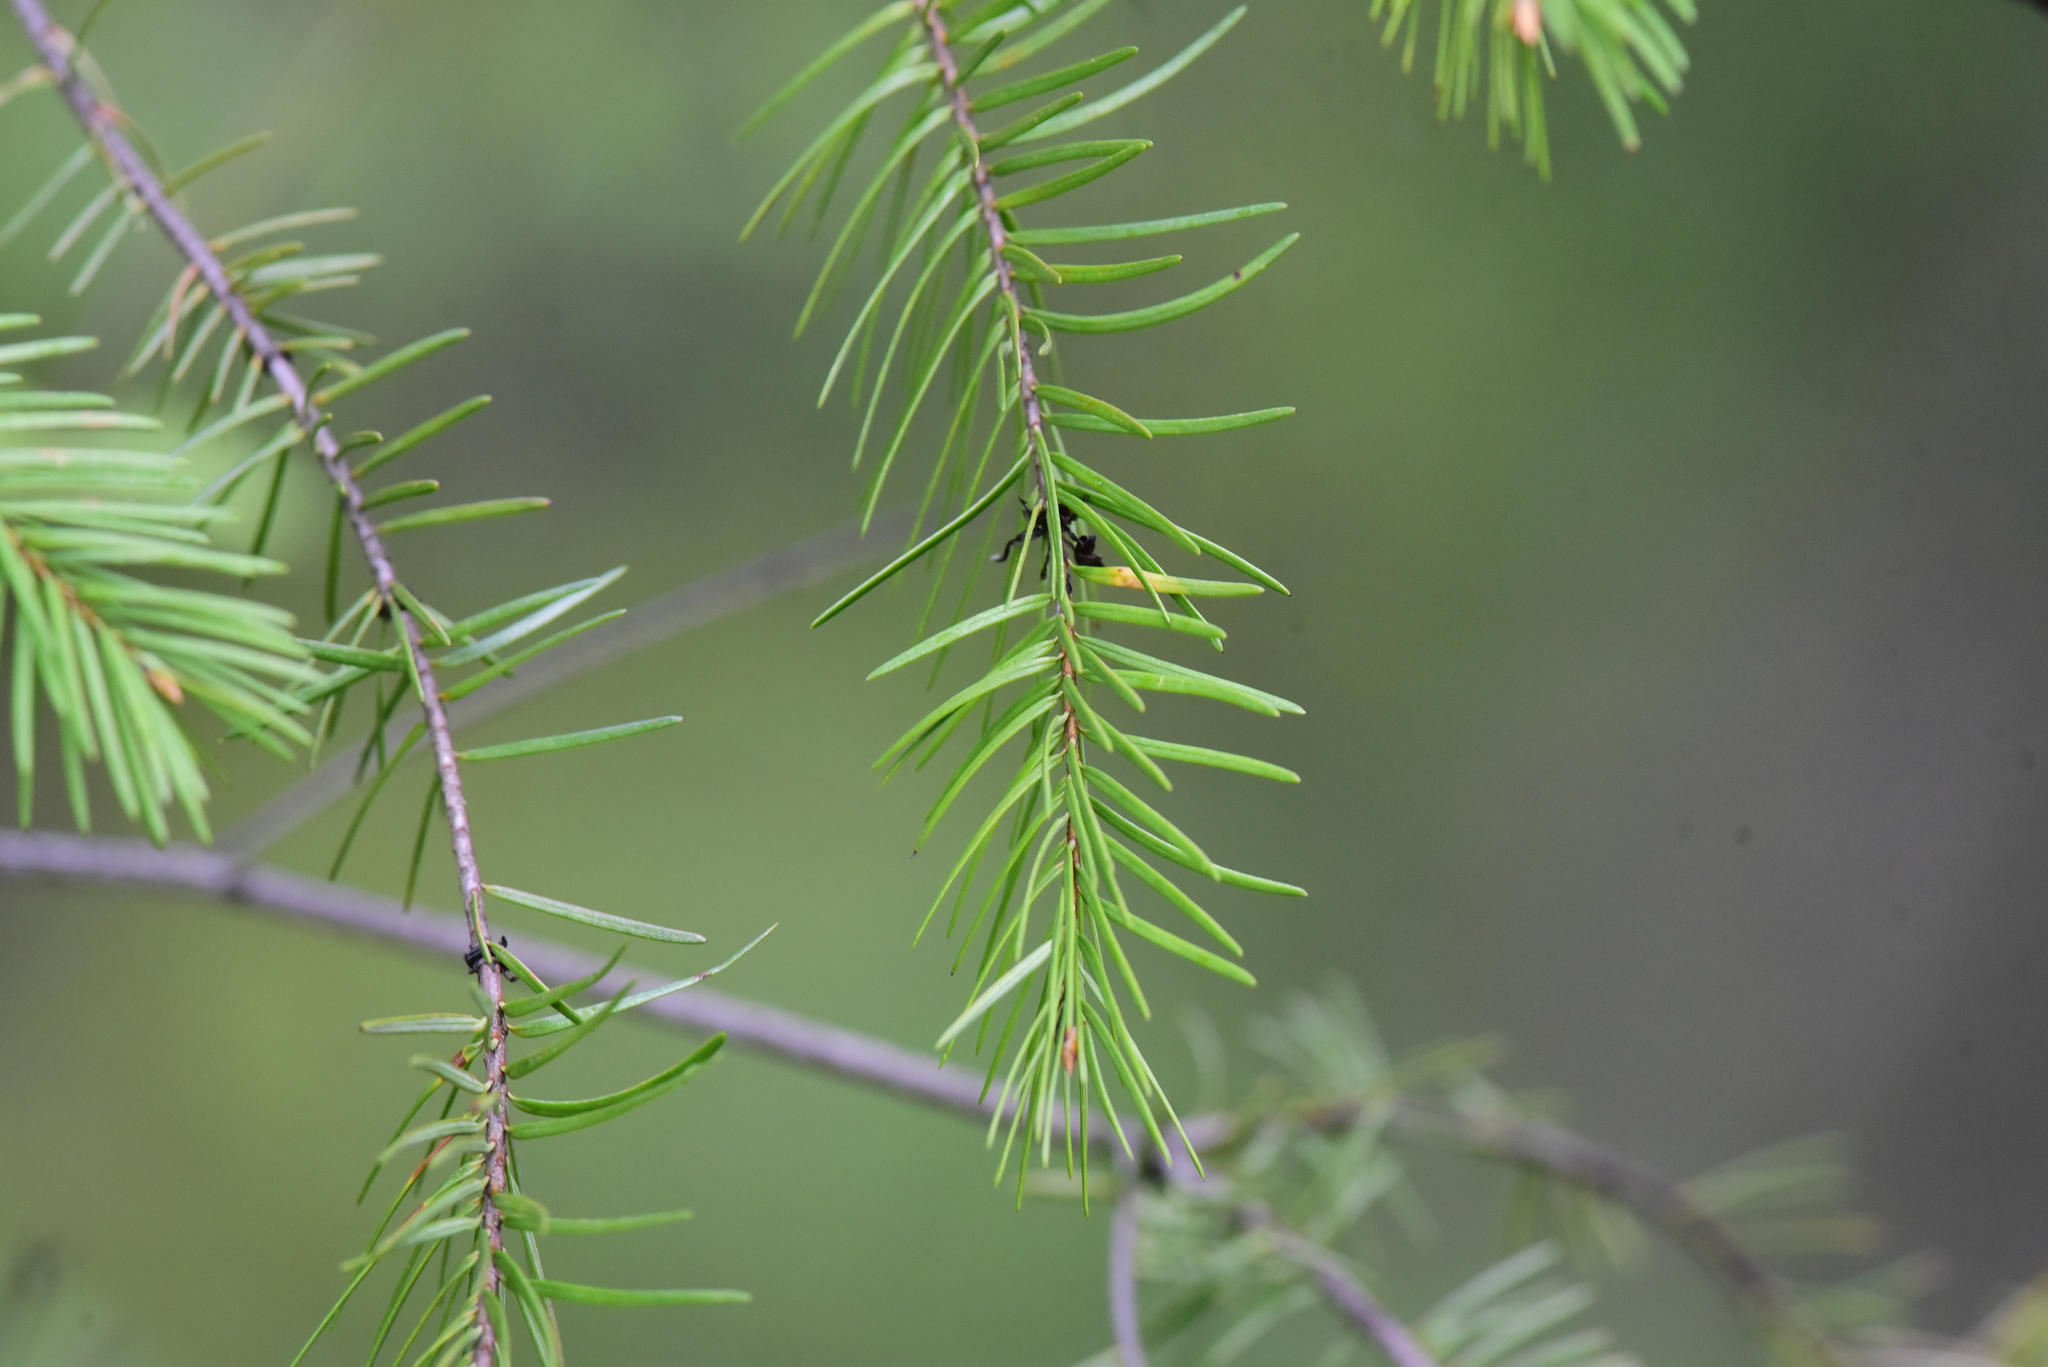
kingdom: Plantae
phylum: Tracheophyta
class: Pinopsida
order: Pinales
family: Pinaceae
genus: Pseudotsuga
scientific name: Pseudotsuga menziesii
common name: Douglas fir
